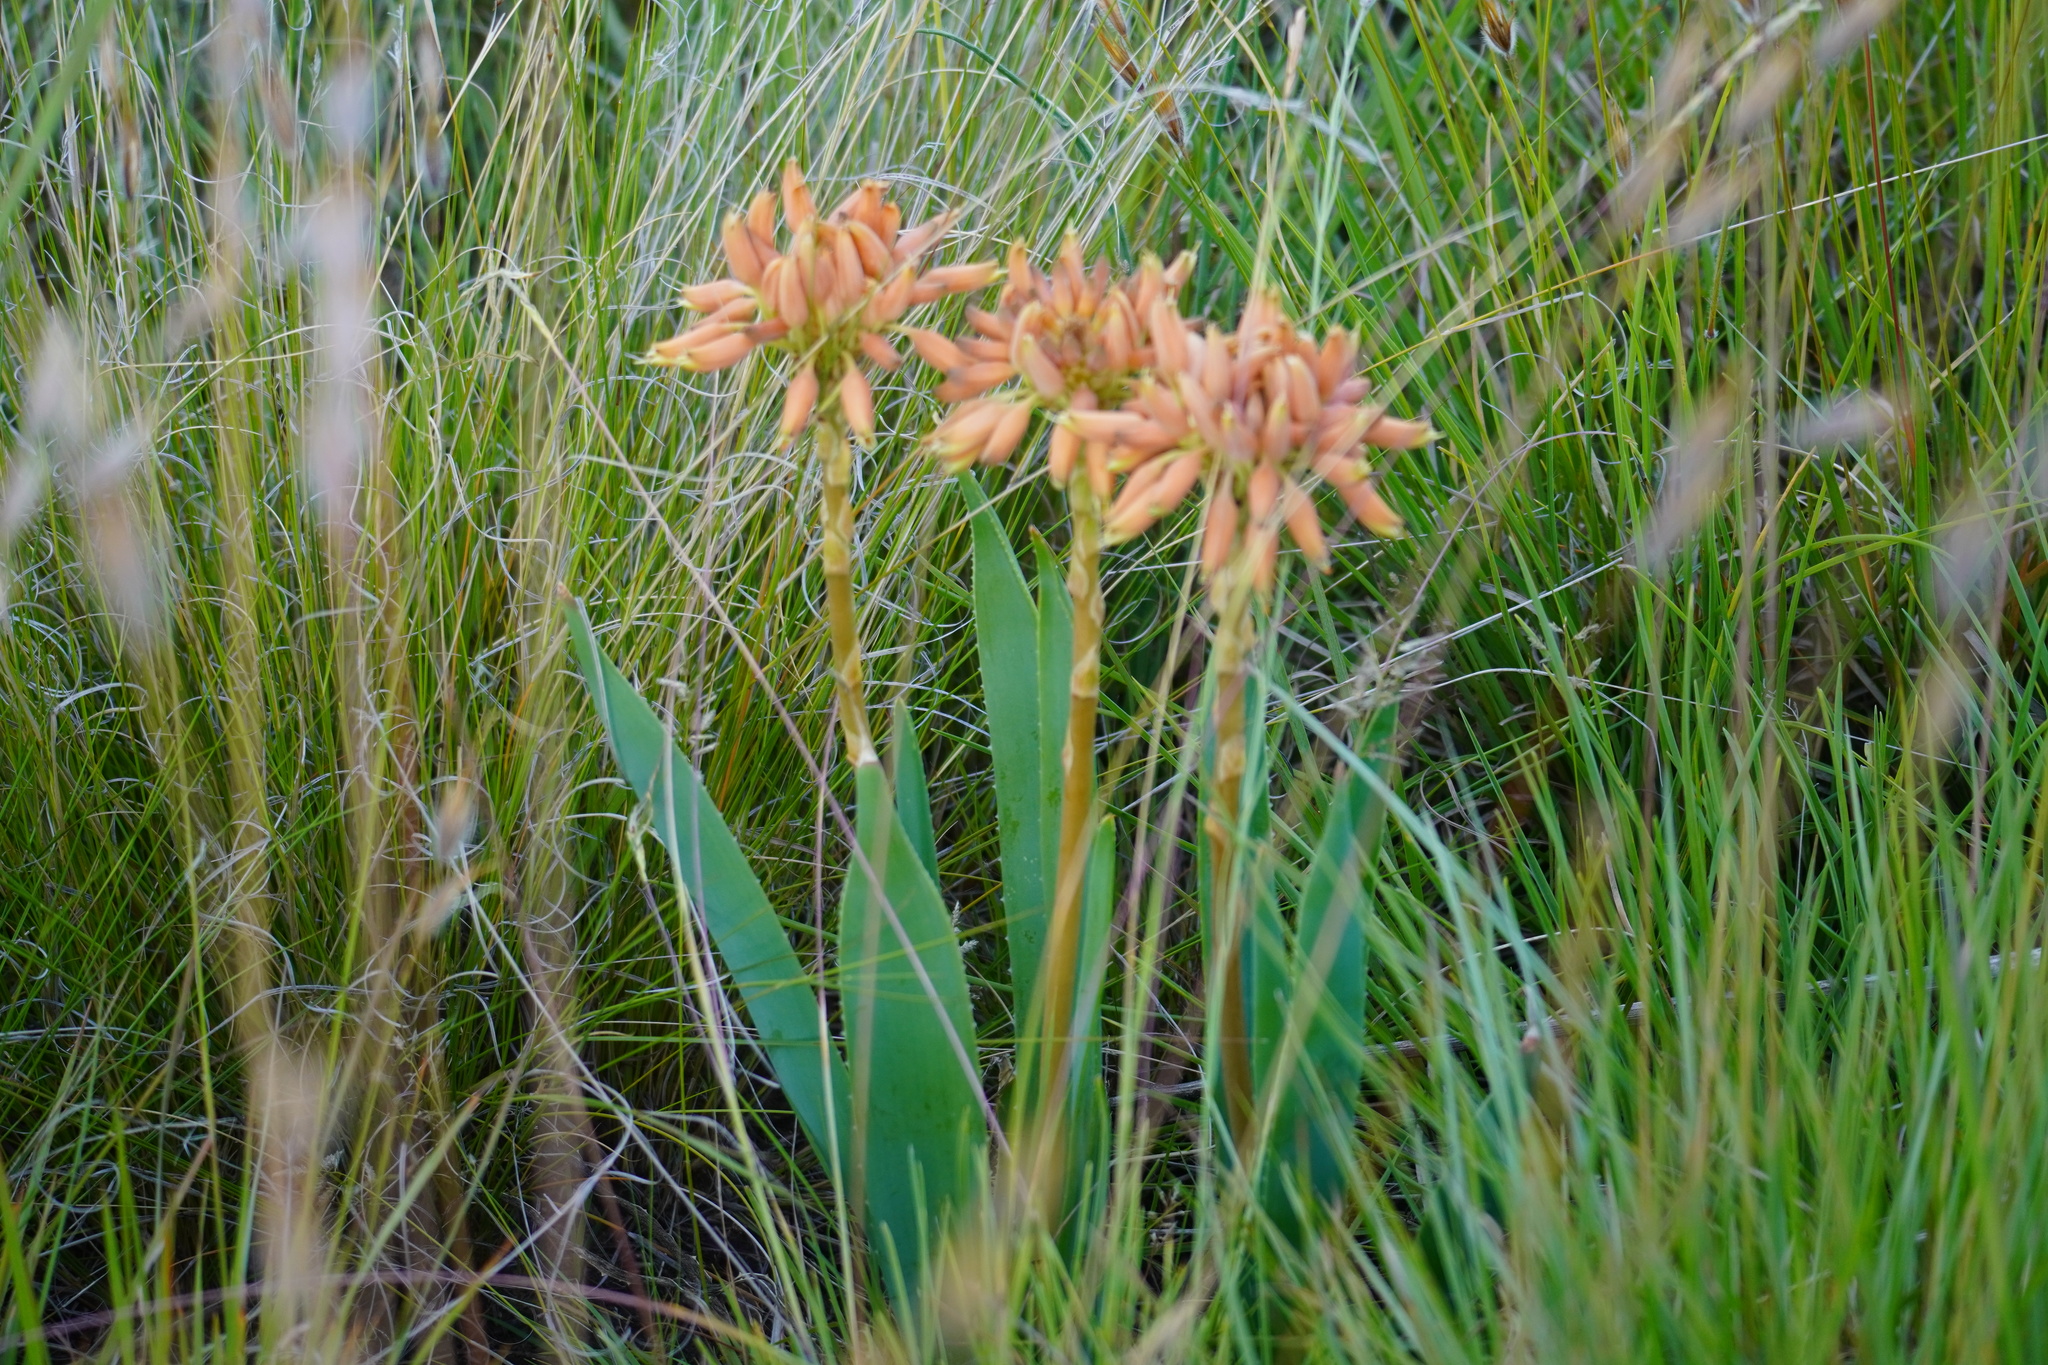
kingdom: Plantae
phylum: Tracheophyta
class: Liliopsida
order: Asparagales
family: Asphodelaceae
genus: Aloe
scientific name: Aloe ecklonis
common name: Ecklon's aloe
